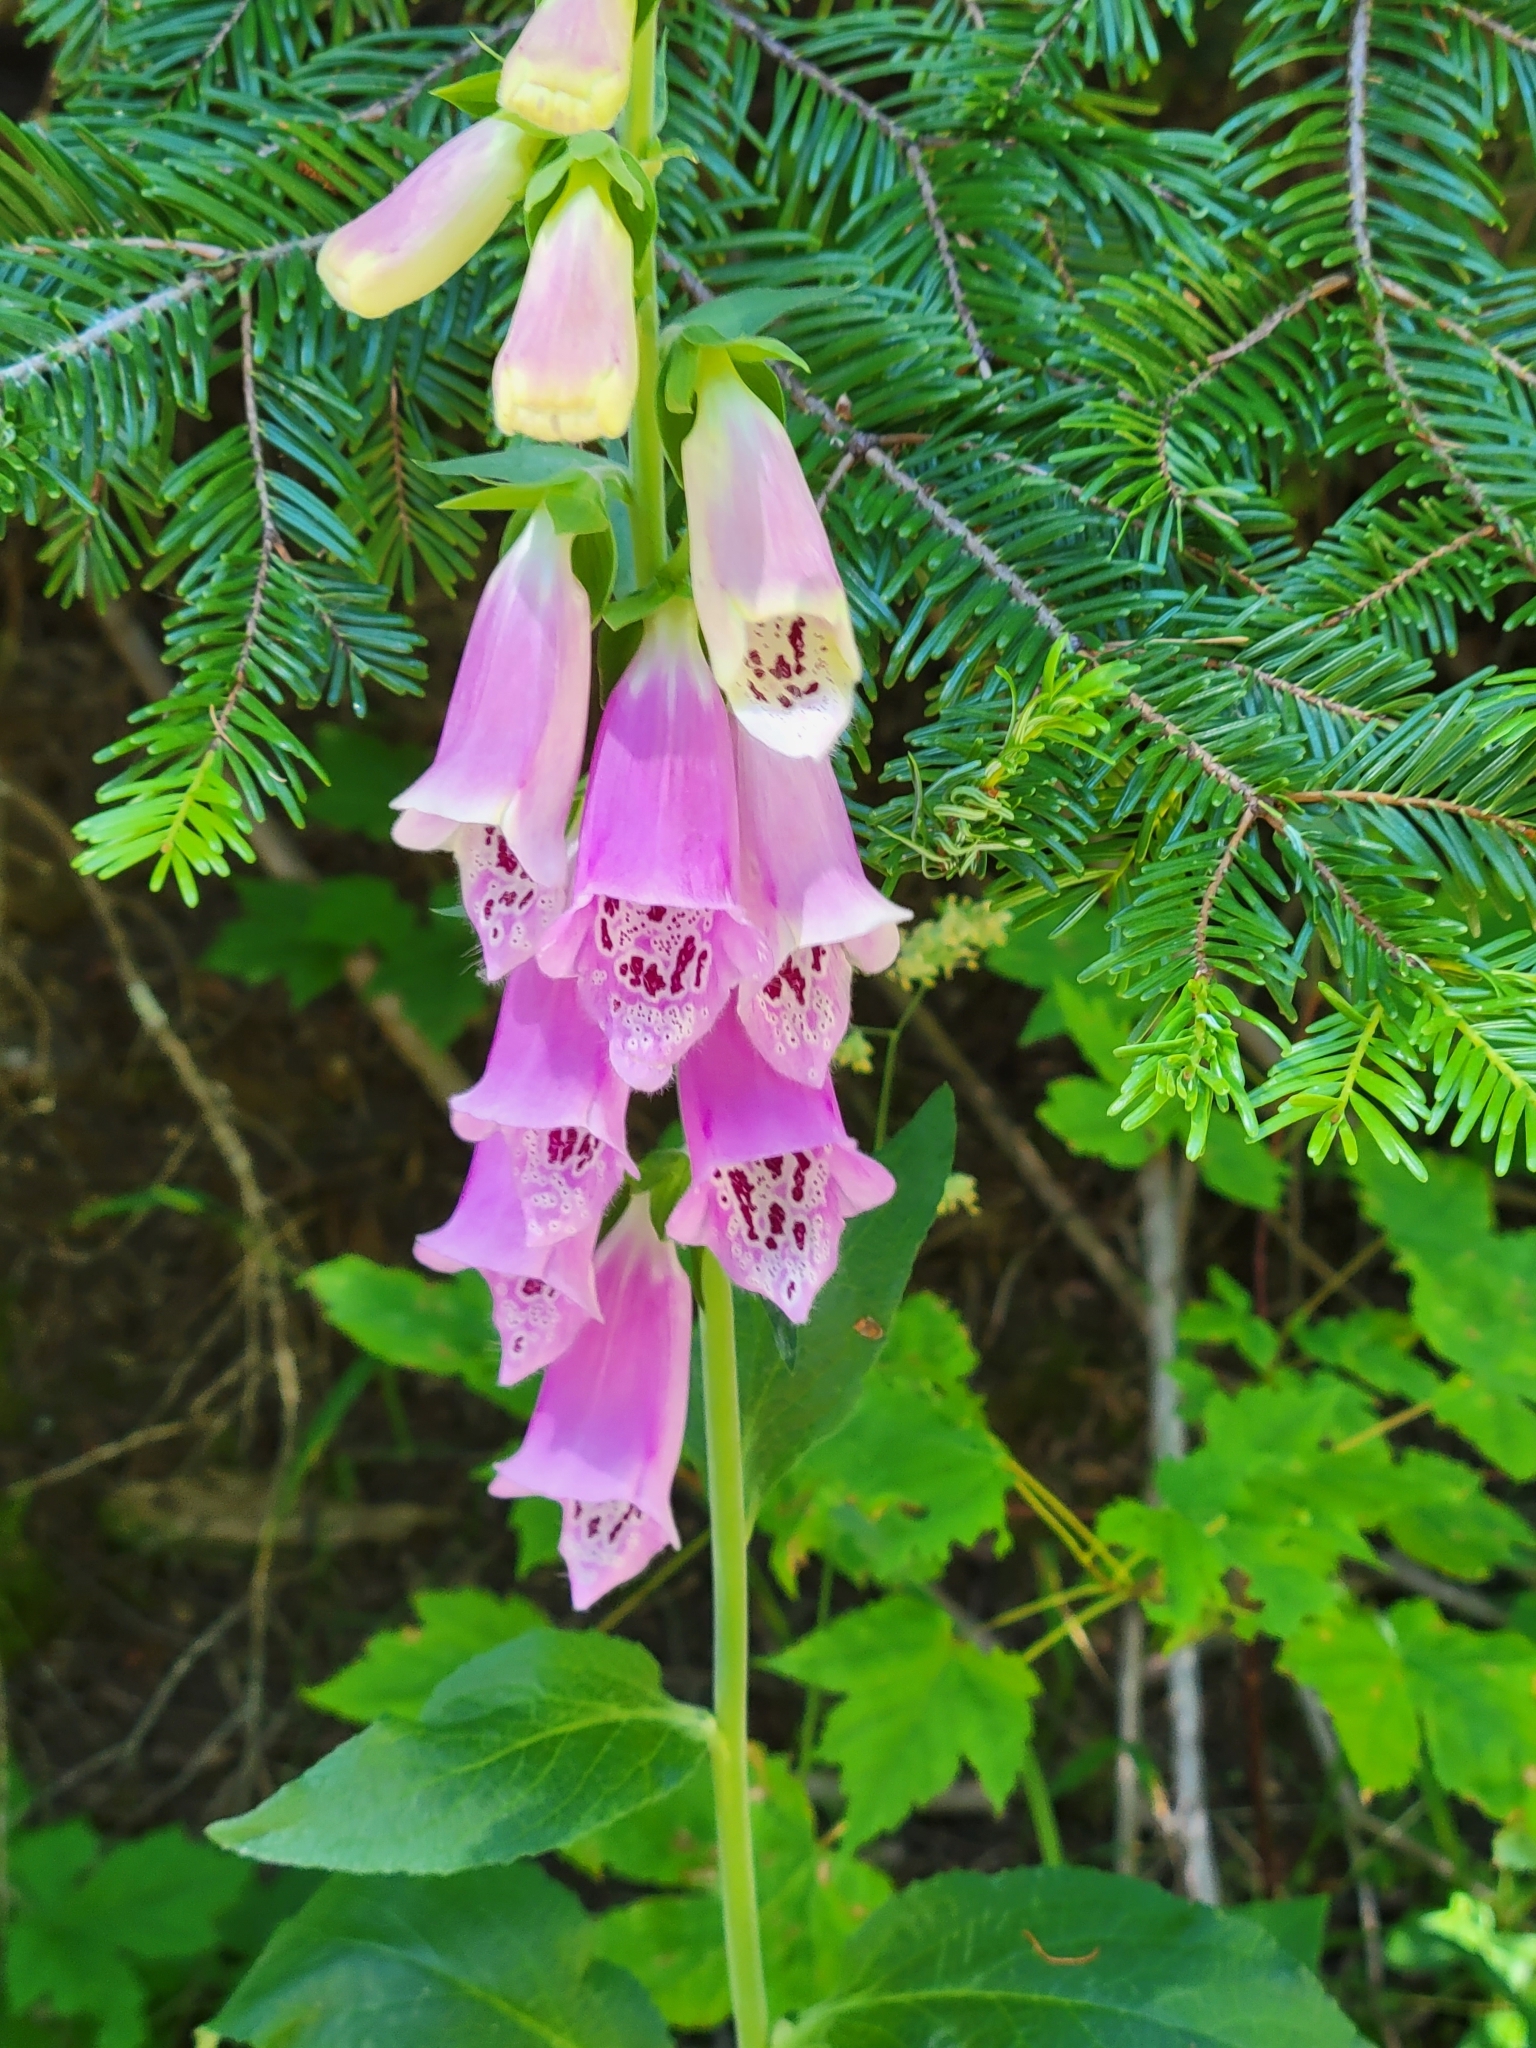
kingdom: Plantae
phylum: Tracheophyta
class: Magnoliopsida
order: Lamiales
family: Plantaginaceae
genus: Digitalis
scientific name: Digitalis purpurea
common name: Foxglove
